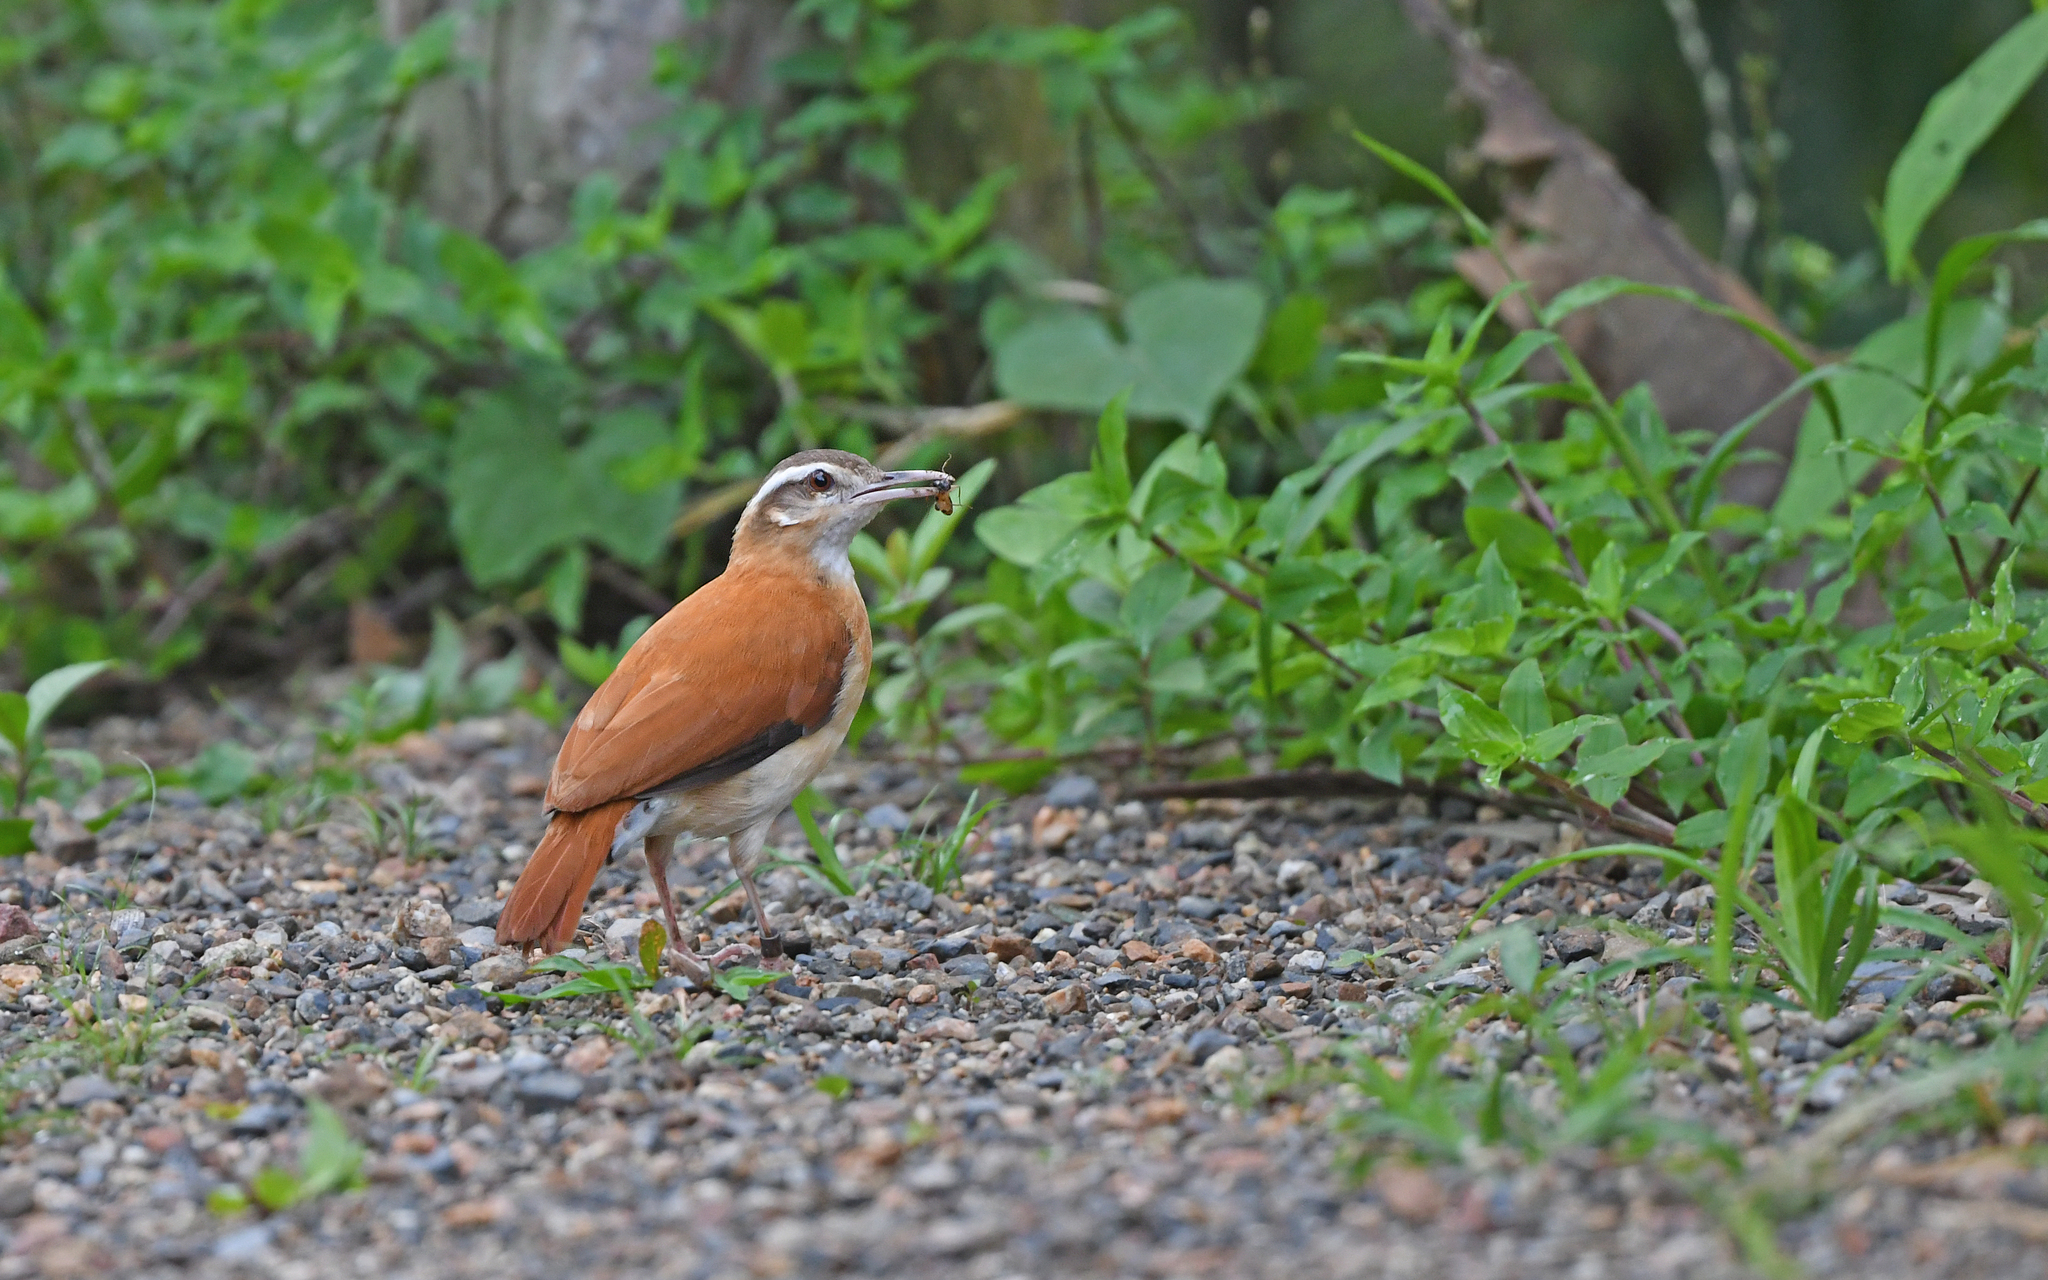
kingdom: Animalia
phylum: Chordata
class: Aves
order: Passeriformes
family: Furnariidae
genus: Furnarius
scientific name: Furnarius leucopus
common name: Pale-legged hornero
